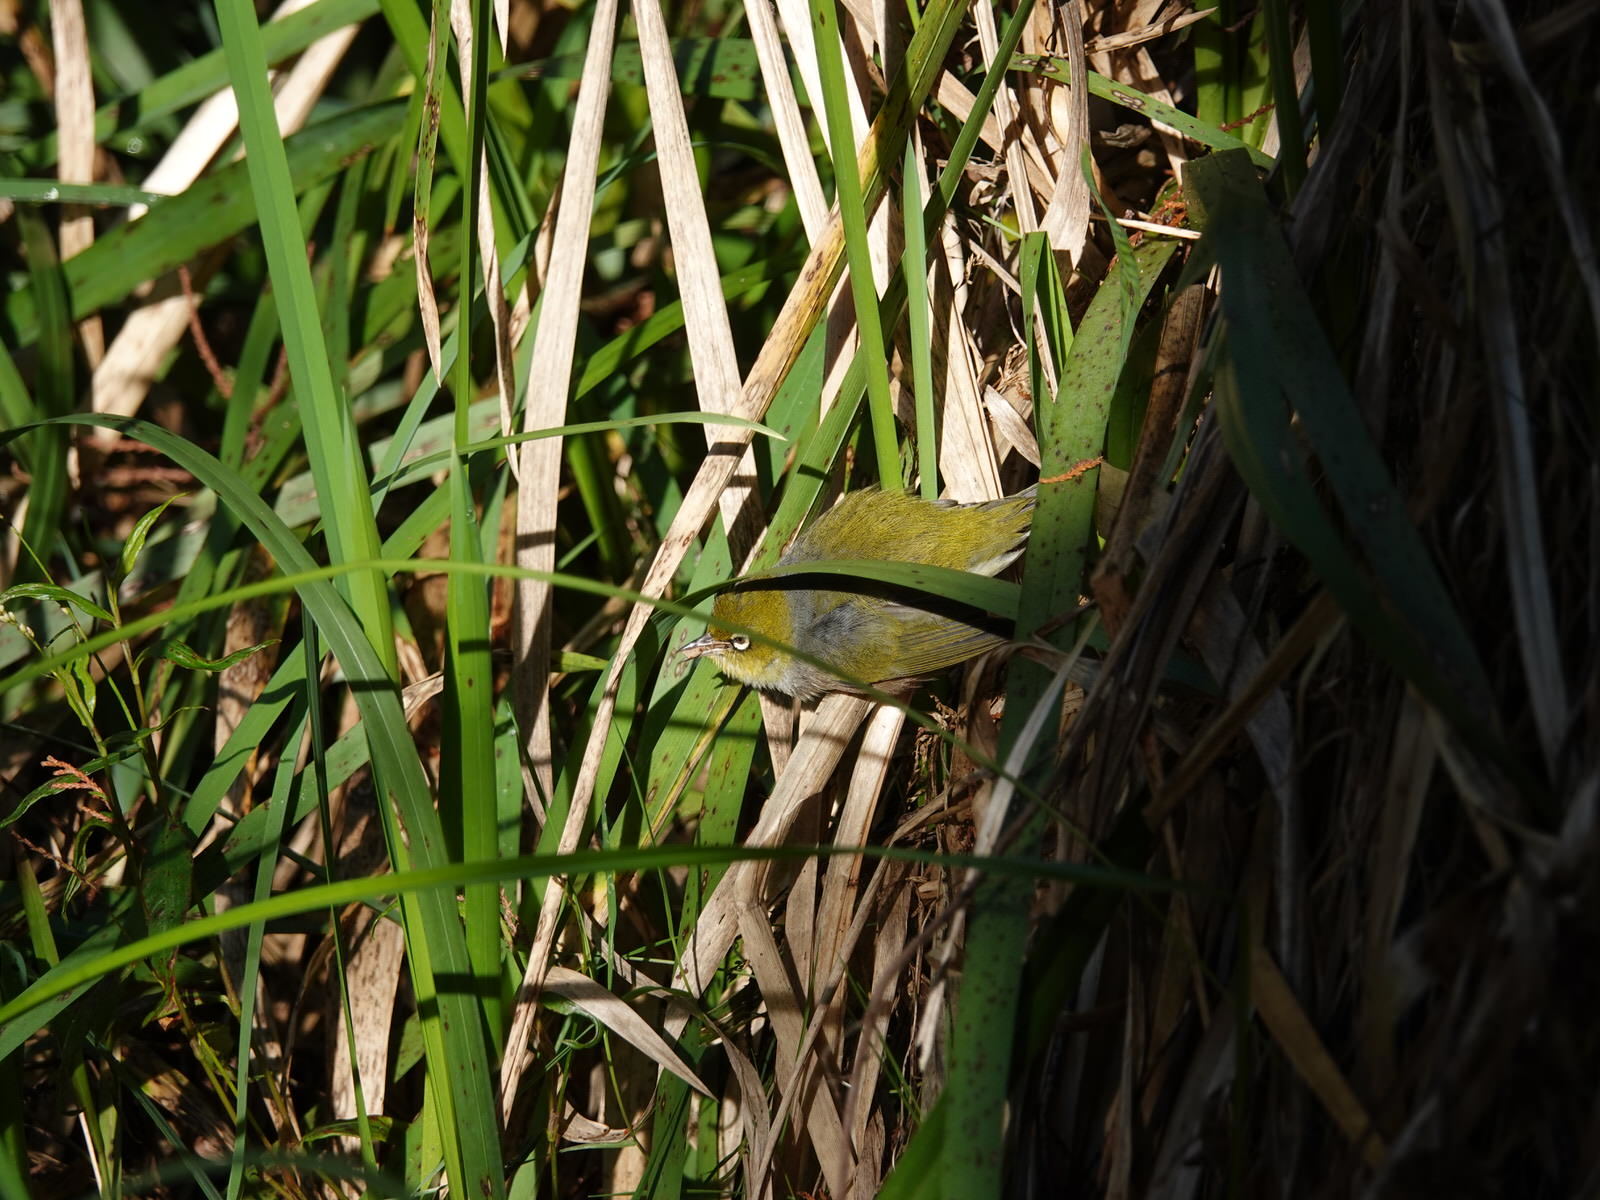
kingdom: Animalia
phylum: Arthropoda
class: Arachnida
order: Araneae
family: Thomisidae
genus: Sidymella
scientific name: Sidymella trapezia
